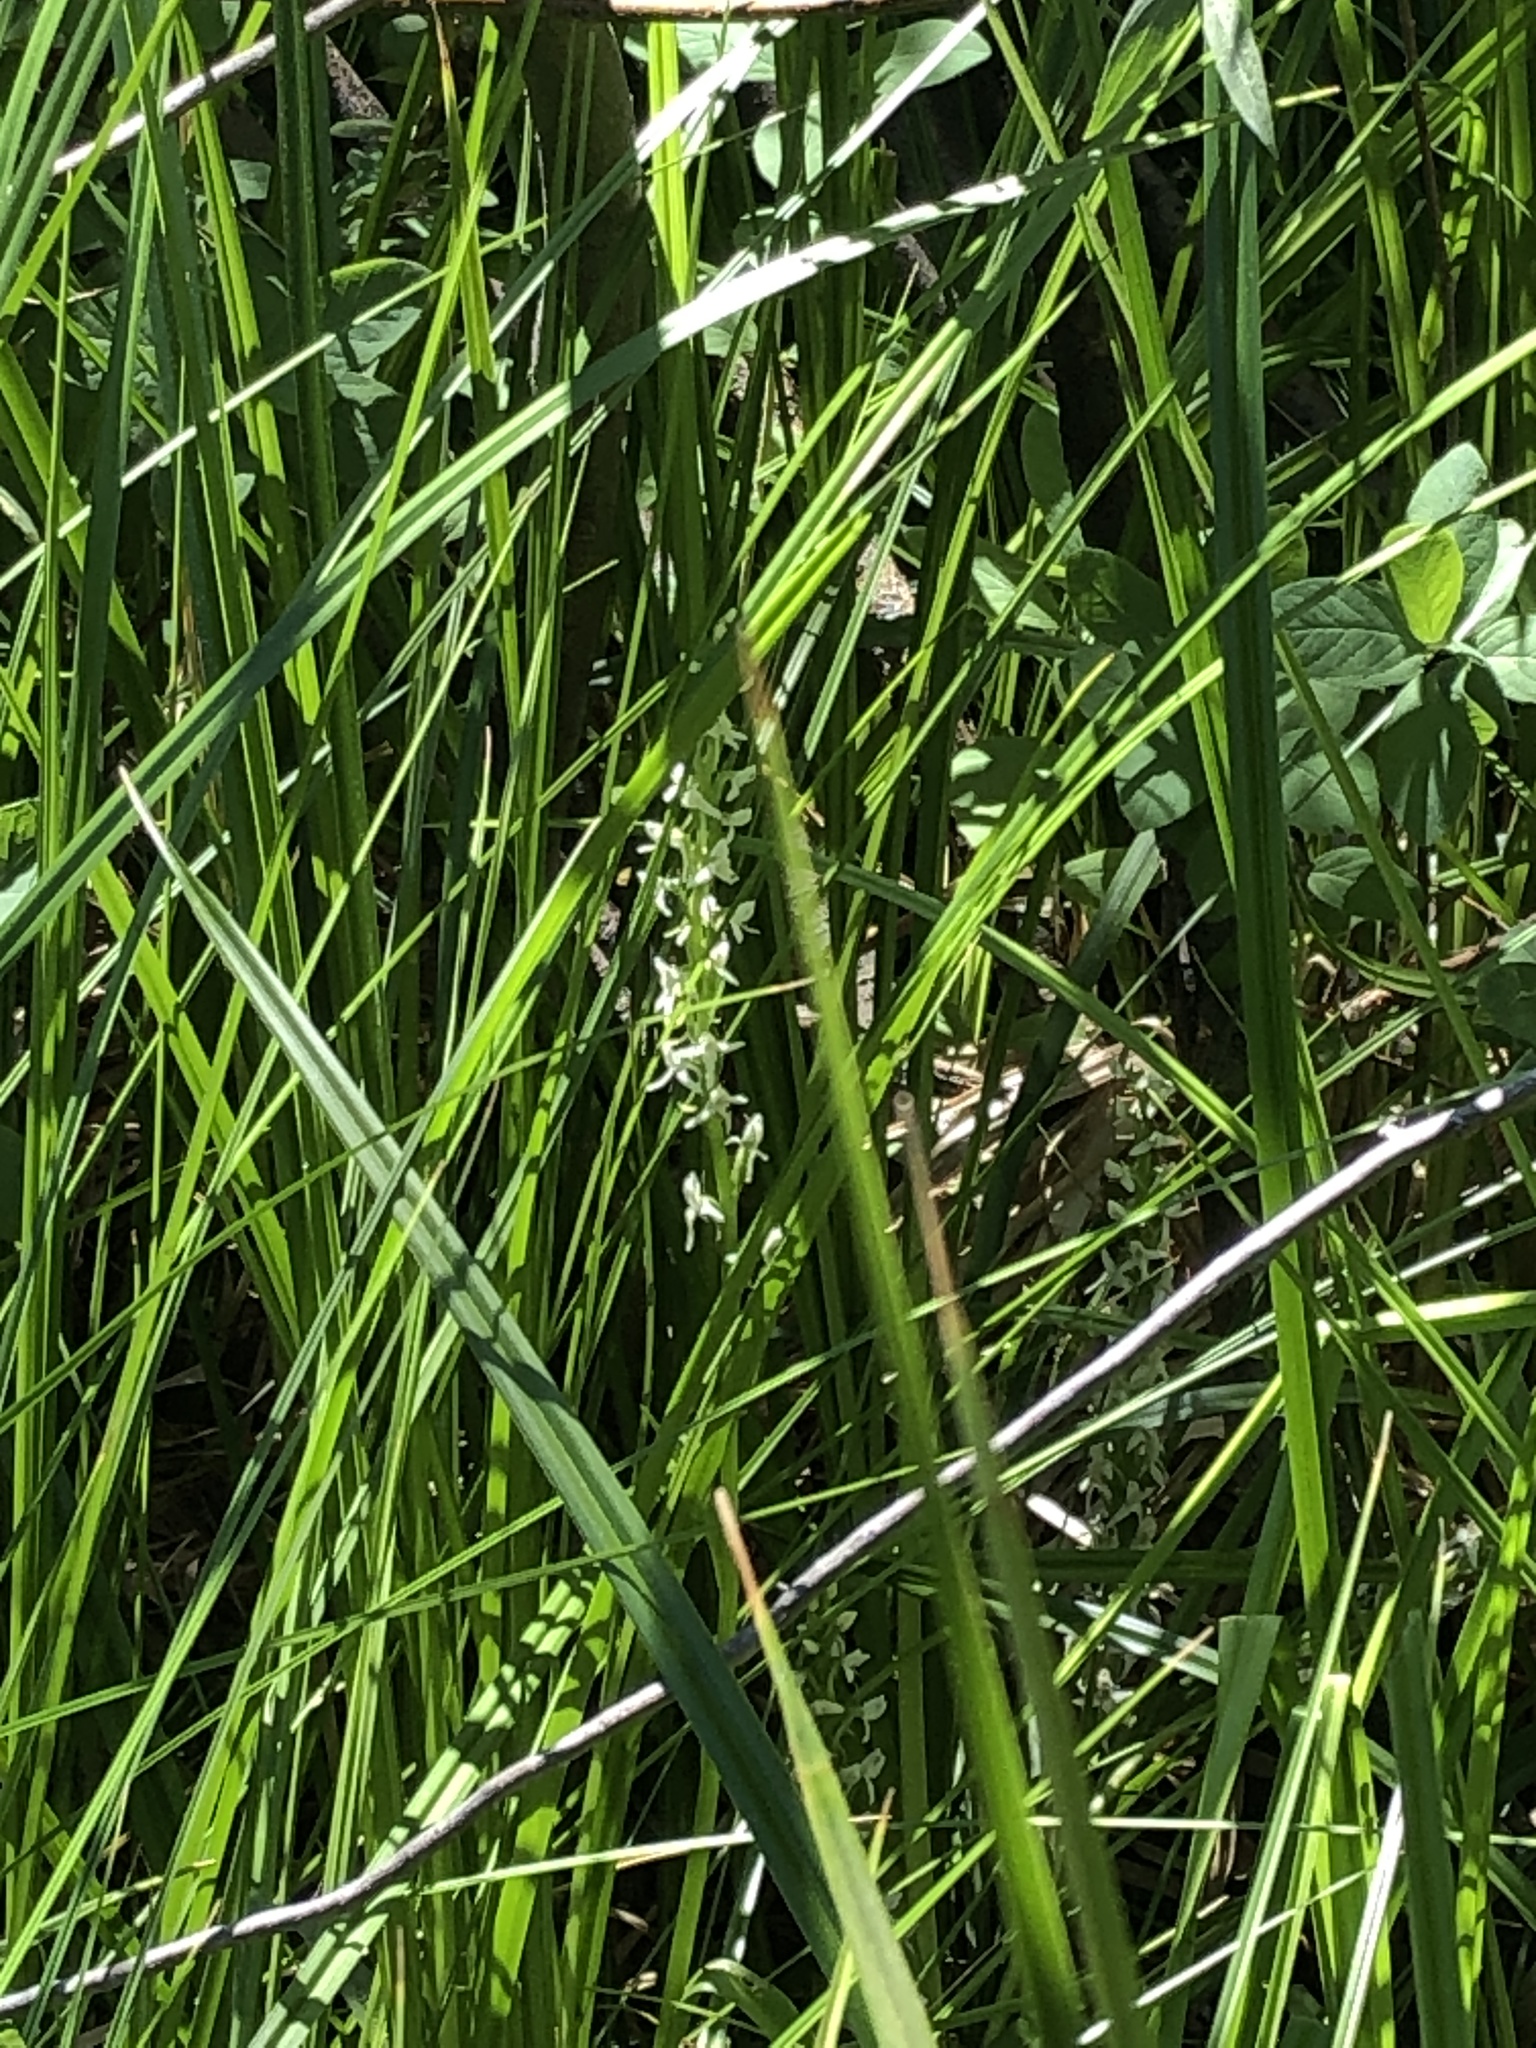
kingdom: Plantae
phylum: Tracheophyta
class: Liliopsida
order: Asparagales
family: Orchidaceae
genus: Platanthera
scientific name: Platanthera dilatata
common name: Bog candles
